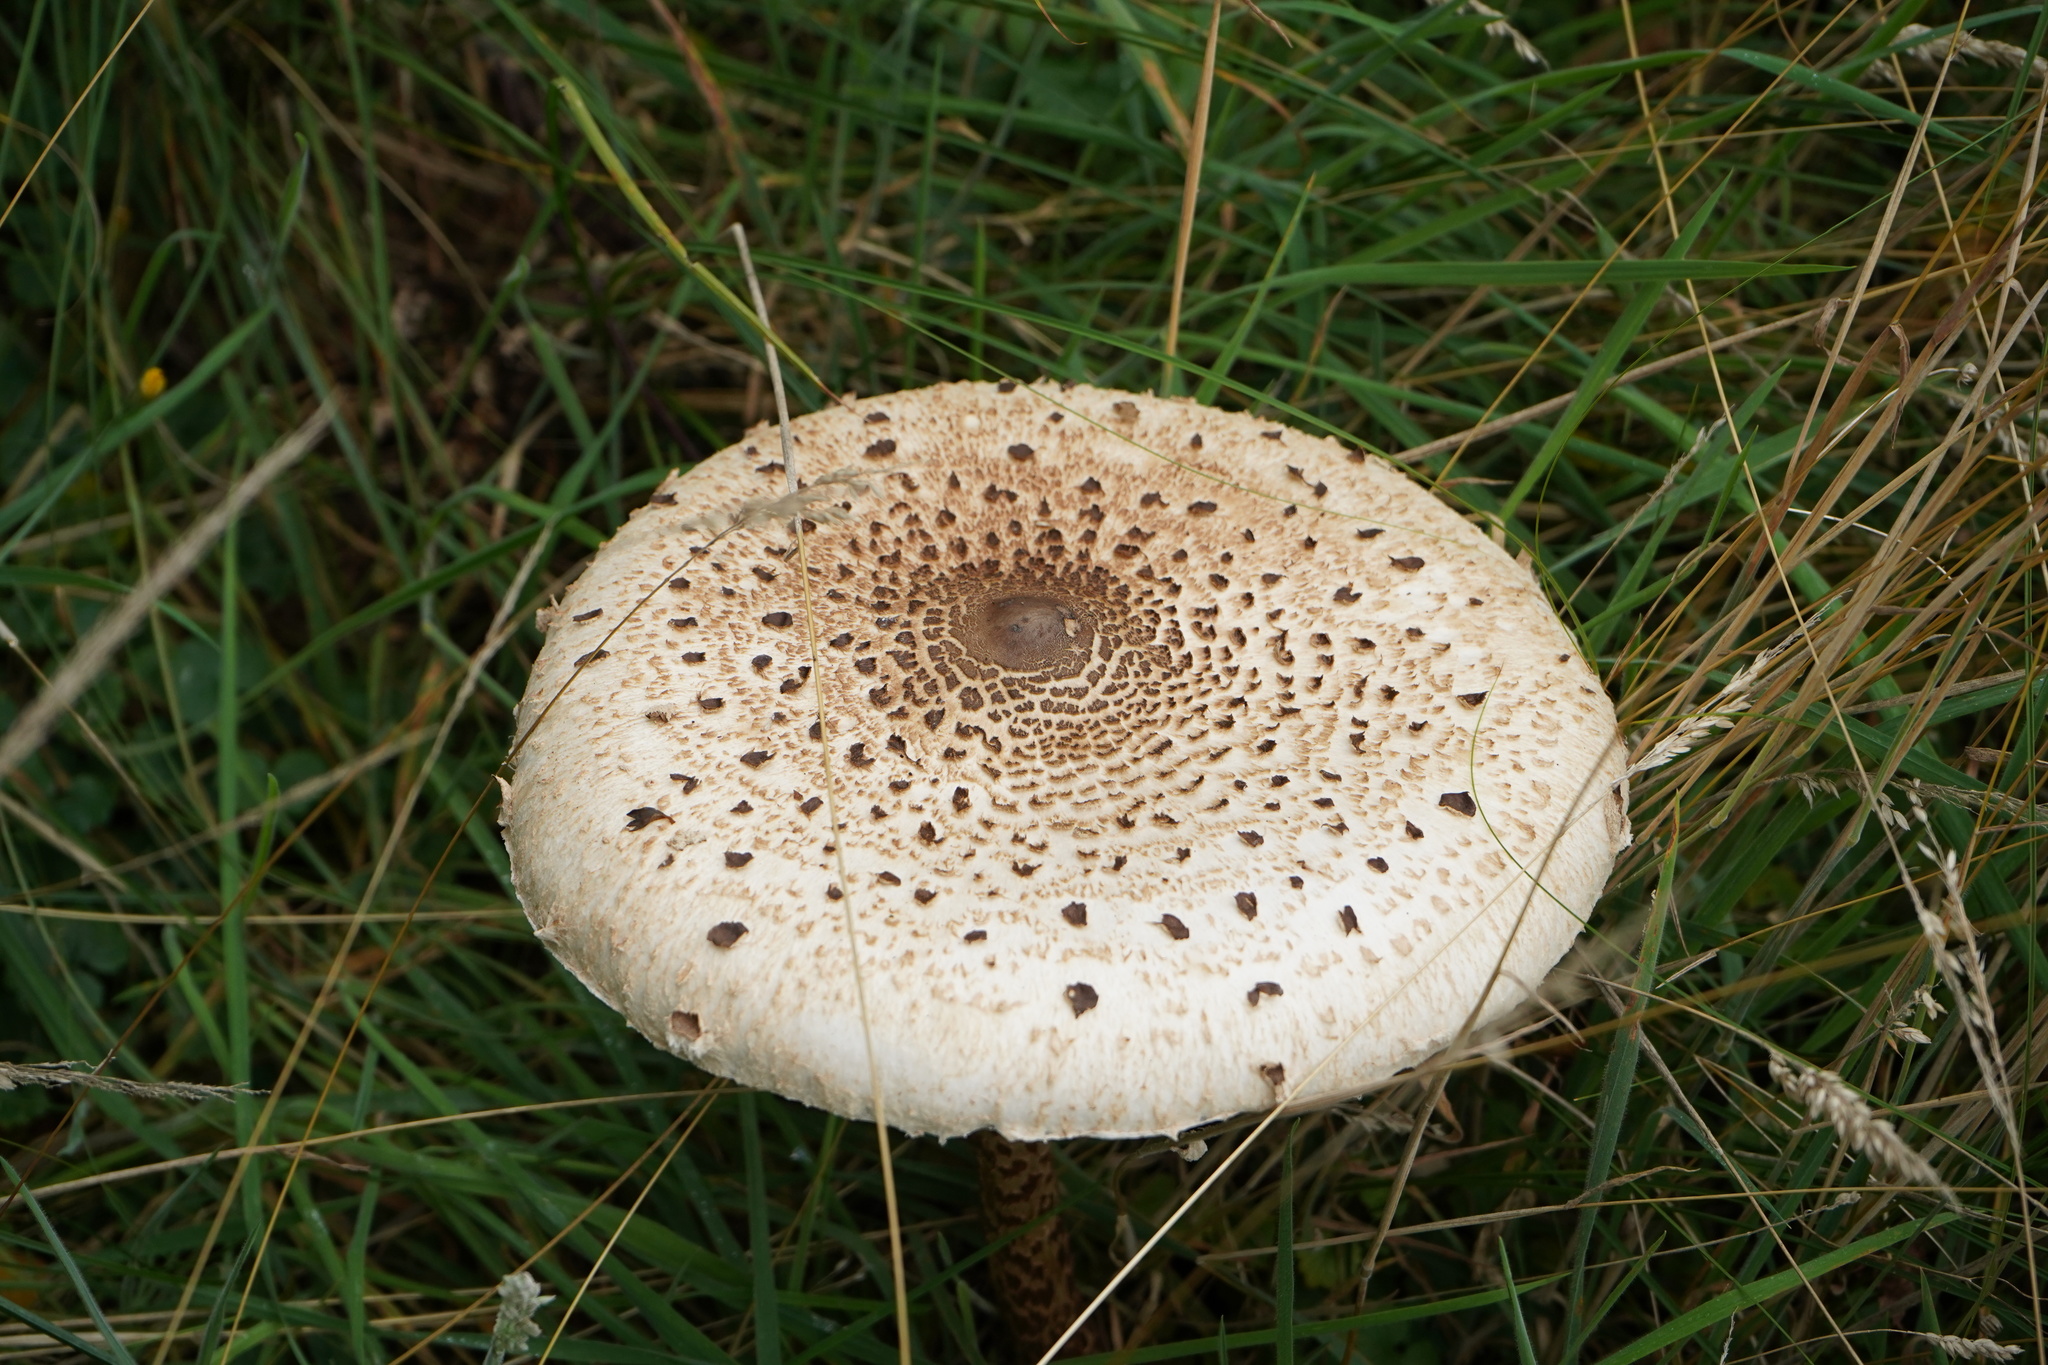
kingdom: Fungi
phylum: Basidiomycota
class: Agaricomycetes
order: Agaricales
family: Agaricaceae
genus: Macrolepiota
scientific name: Macrolepiota procera
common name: Parasol
